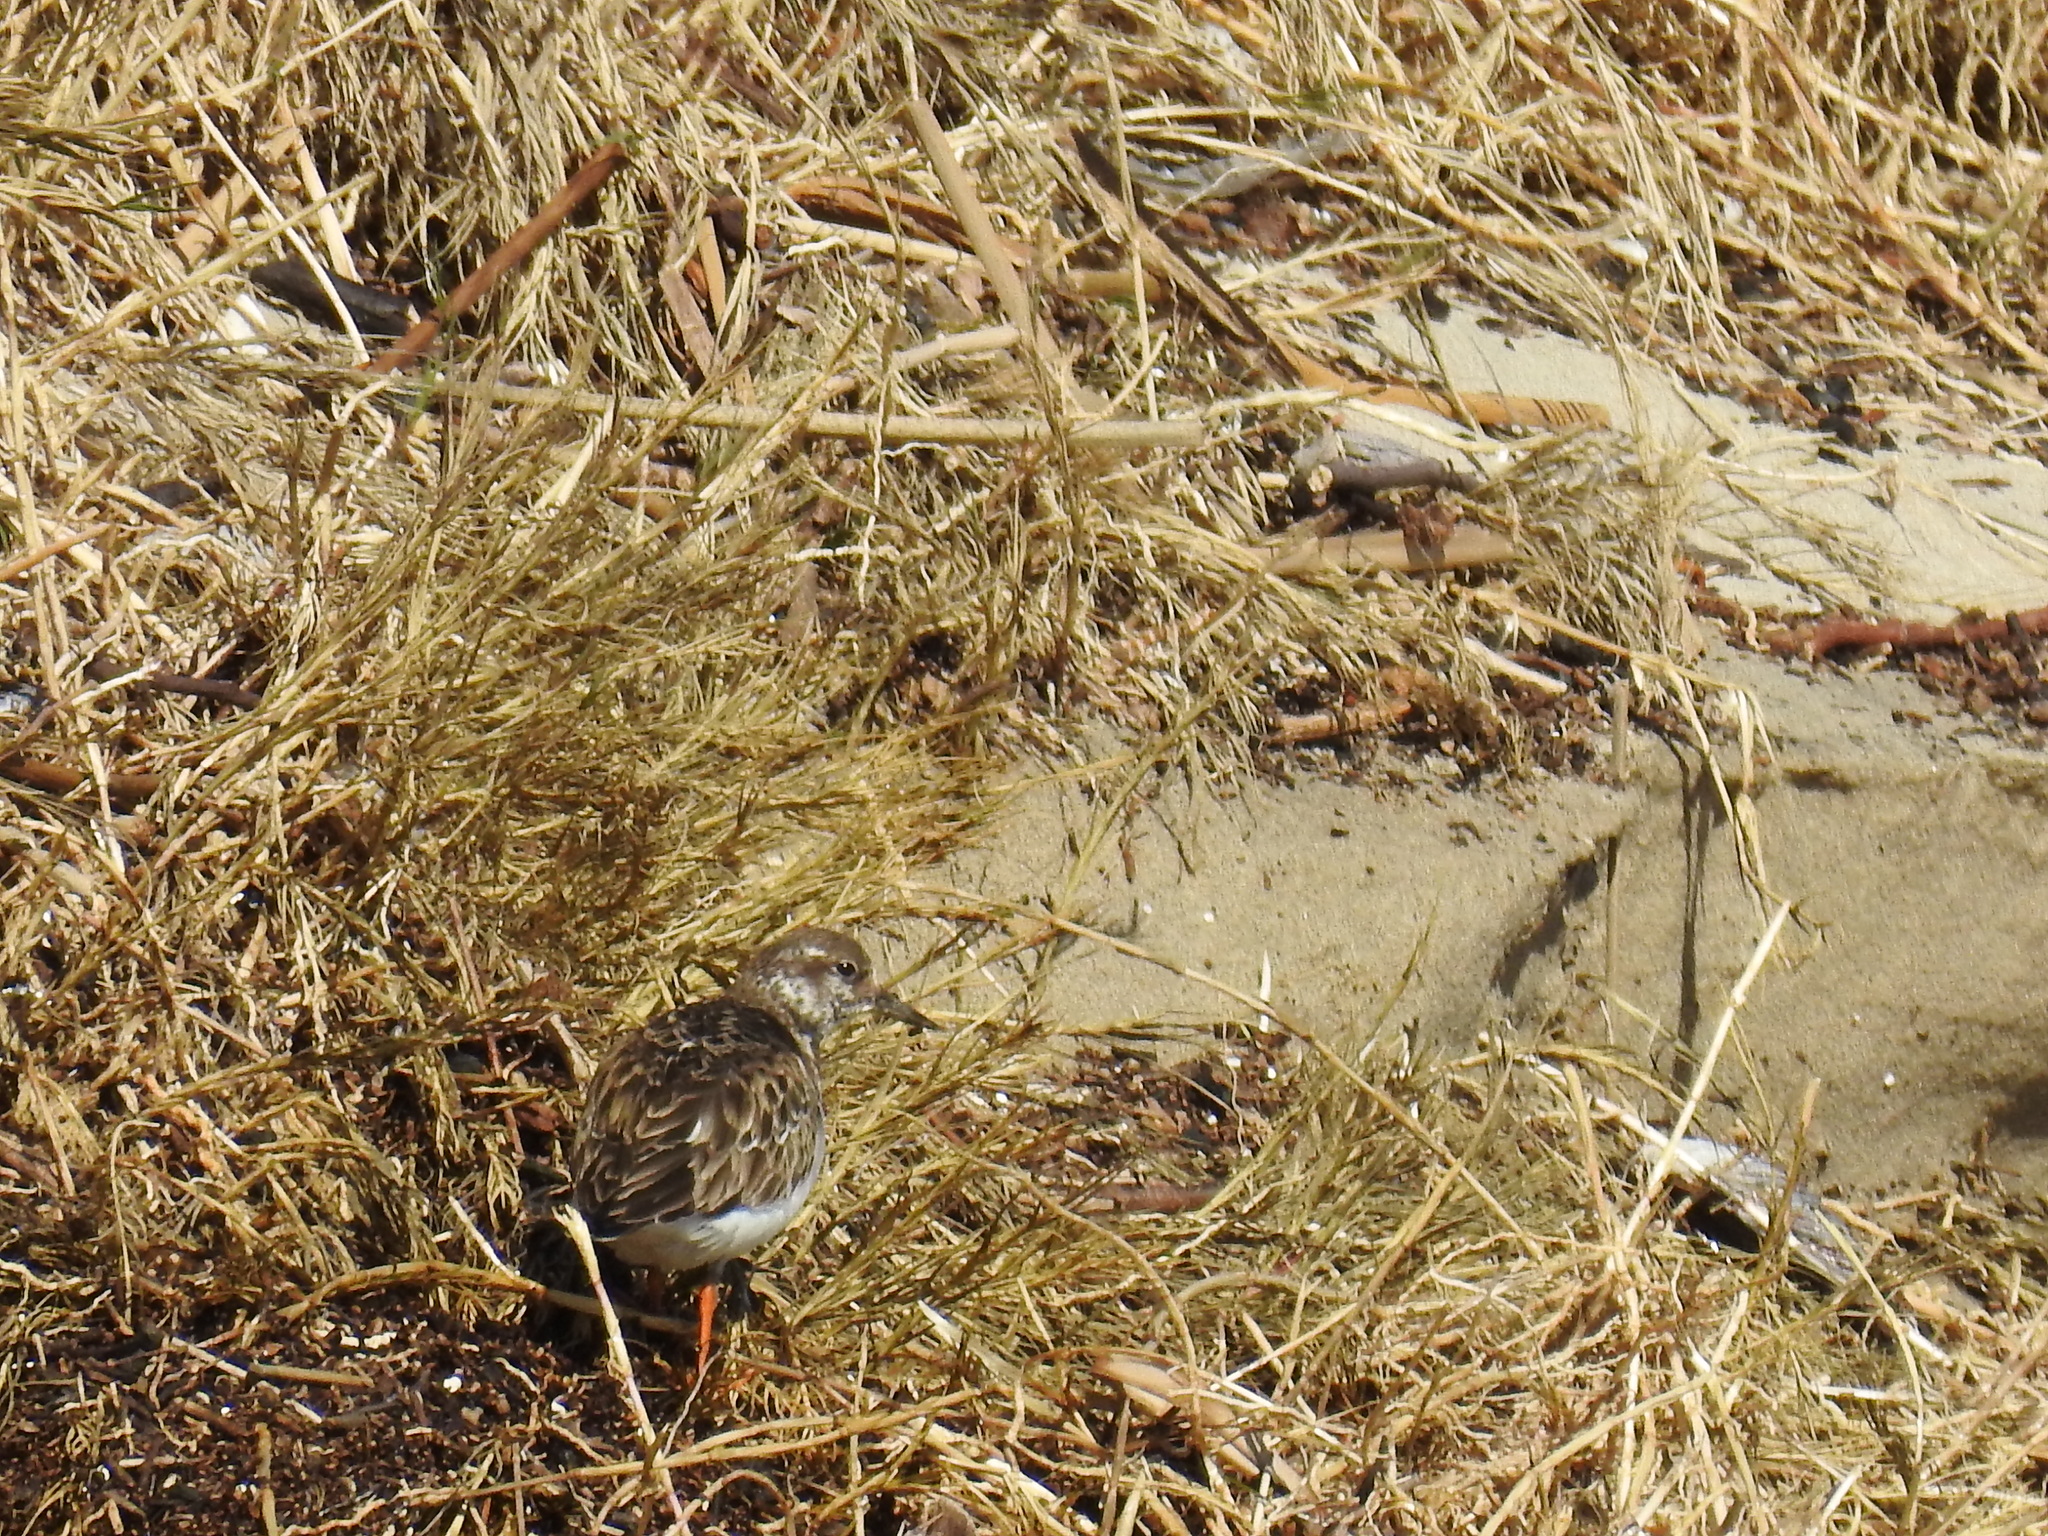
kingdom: Animalia
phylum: Chordata
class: Aves
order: Charadriiformes
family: Scolopacidae
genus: Arenaria
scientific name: Arenaria interpres
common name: Ruddy turnstone
